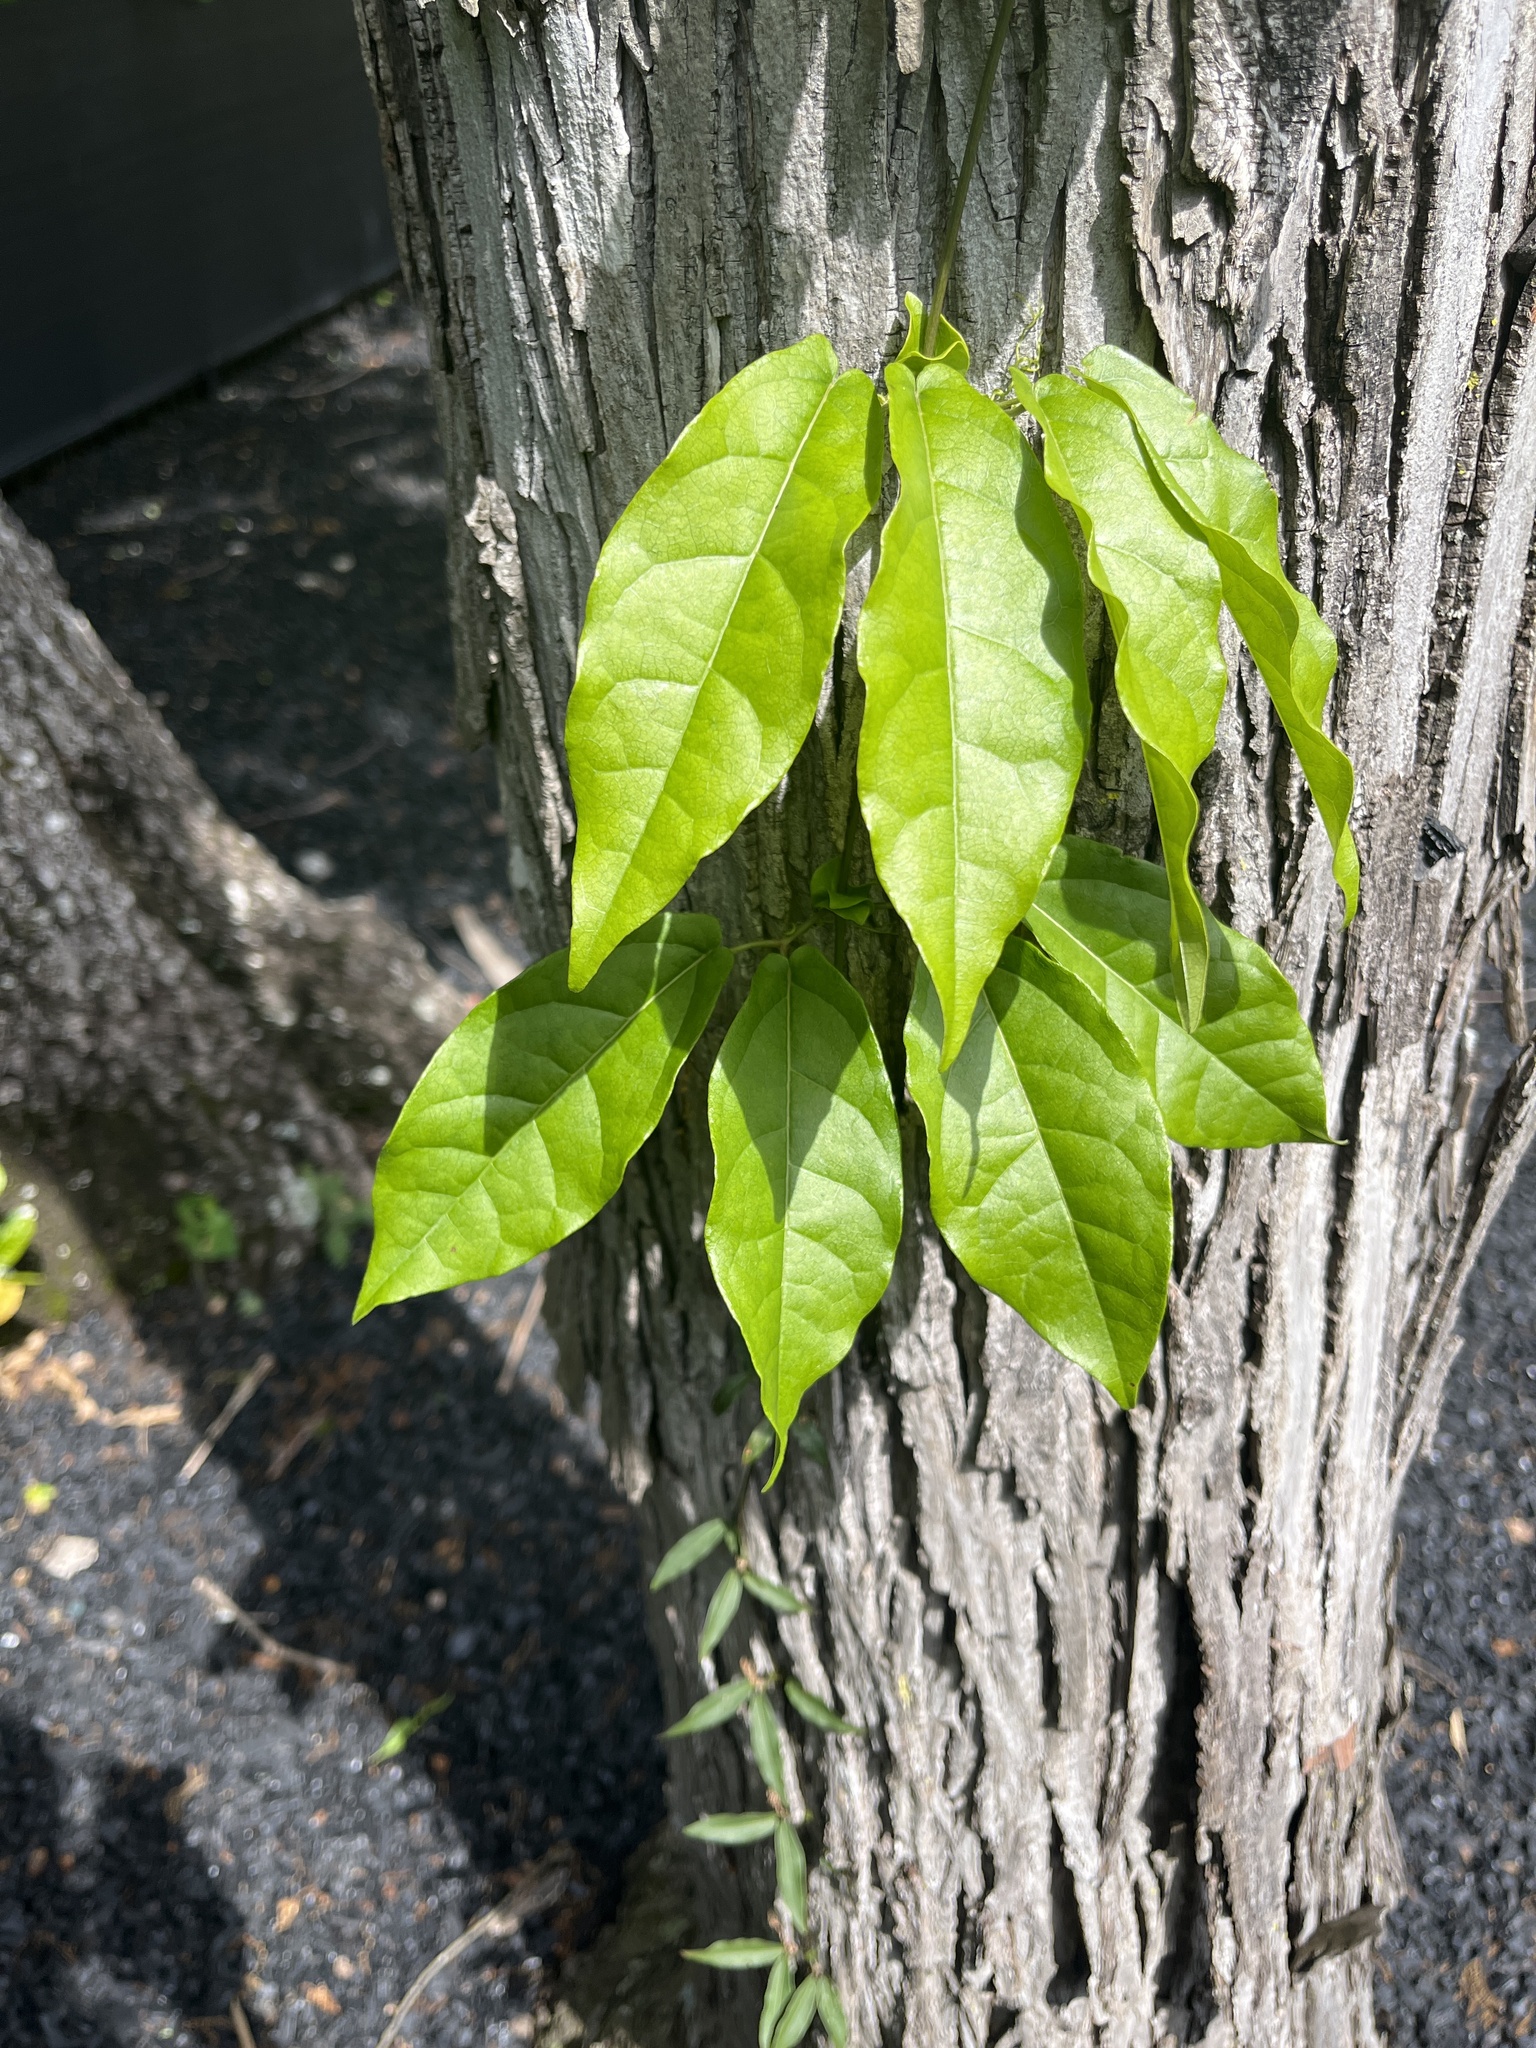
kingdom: Plantae
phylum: Tracheophyta
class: Magnoliopsida
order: Lamiales
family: Bignoniaceae
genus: Bignonia
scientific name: Bignonia capreolata
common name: Crossvine
